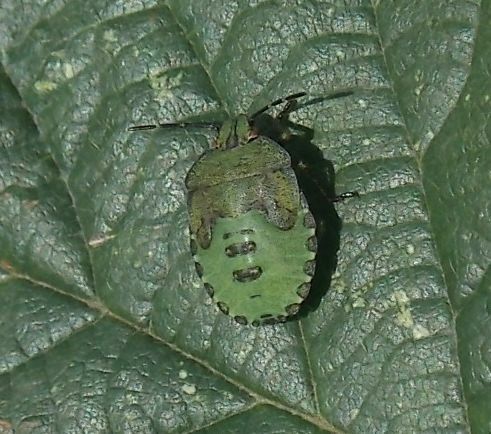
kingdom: Animalia
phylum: Arthropoda
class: Insecta
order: Hemiptera
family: Pentatomidae
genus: Palomena
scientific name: Palomena prasina
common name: Green shieldbug
